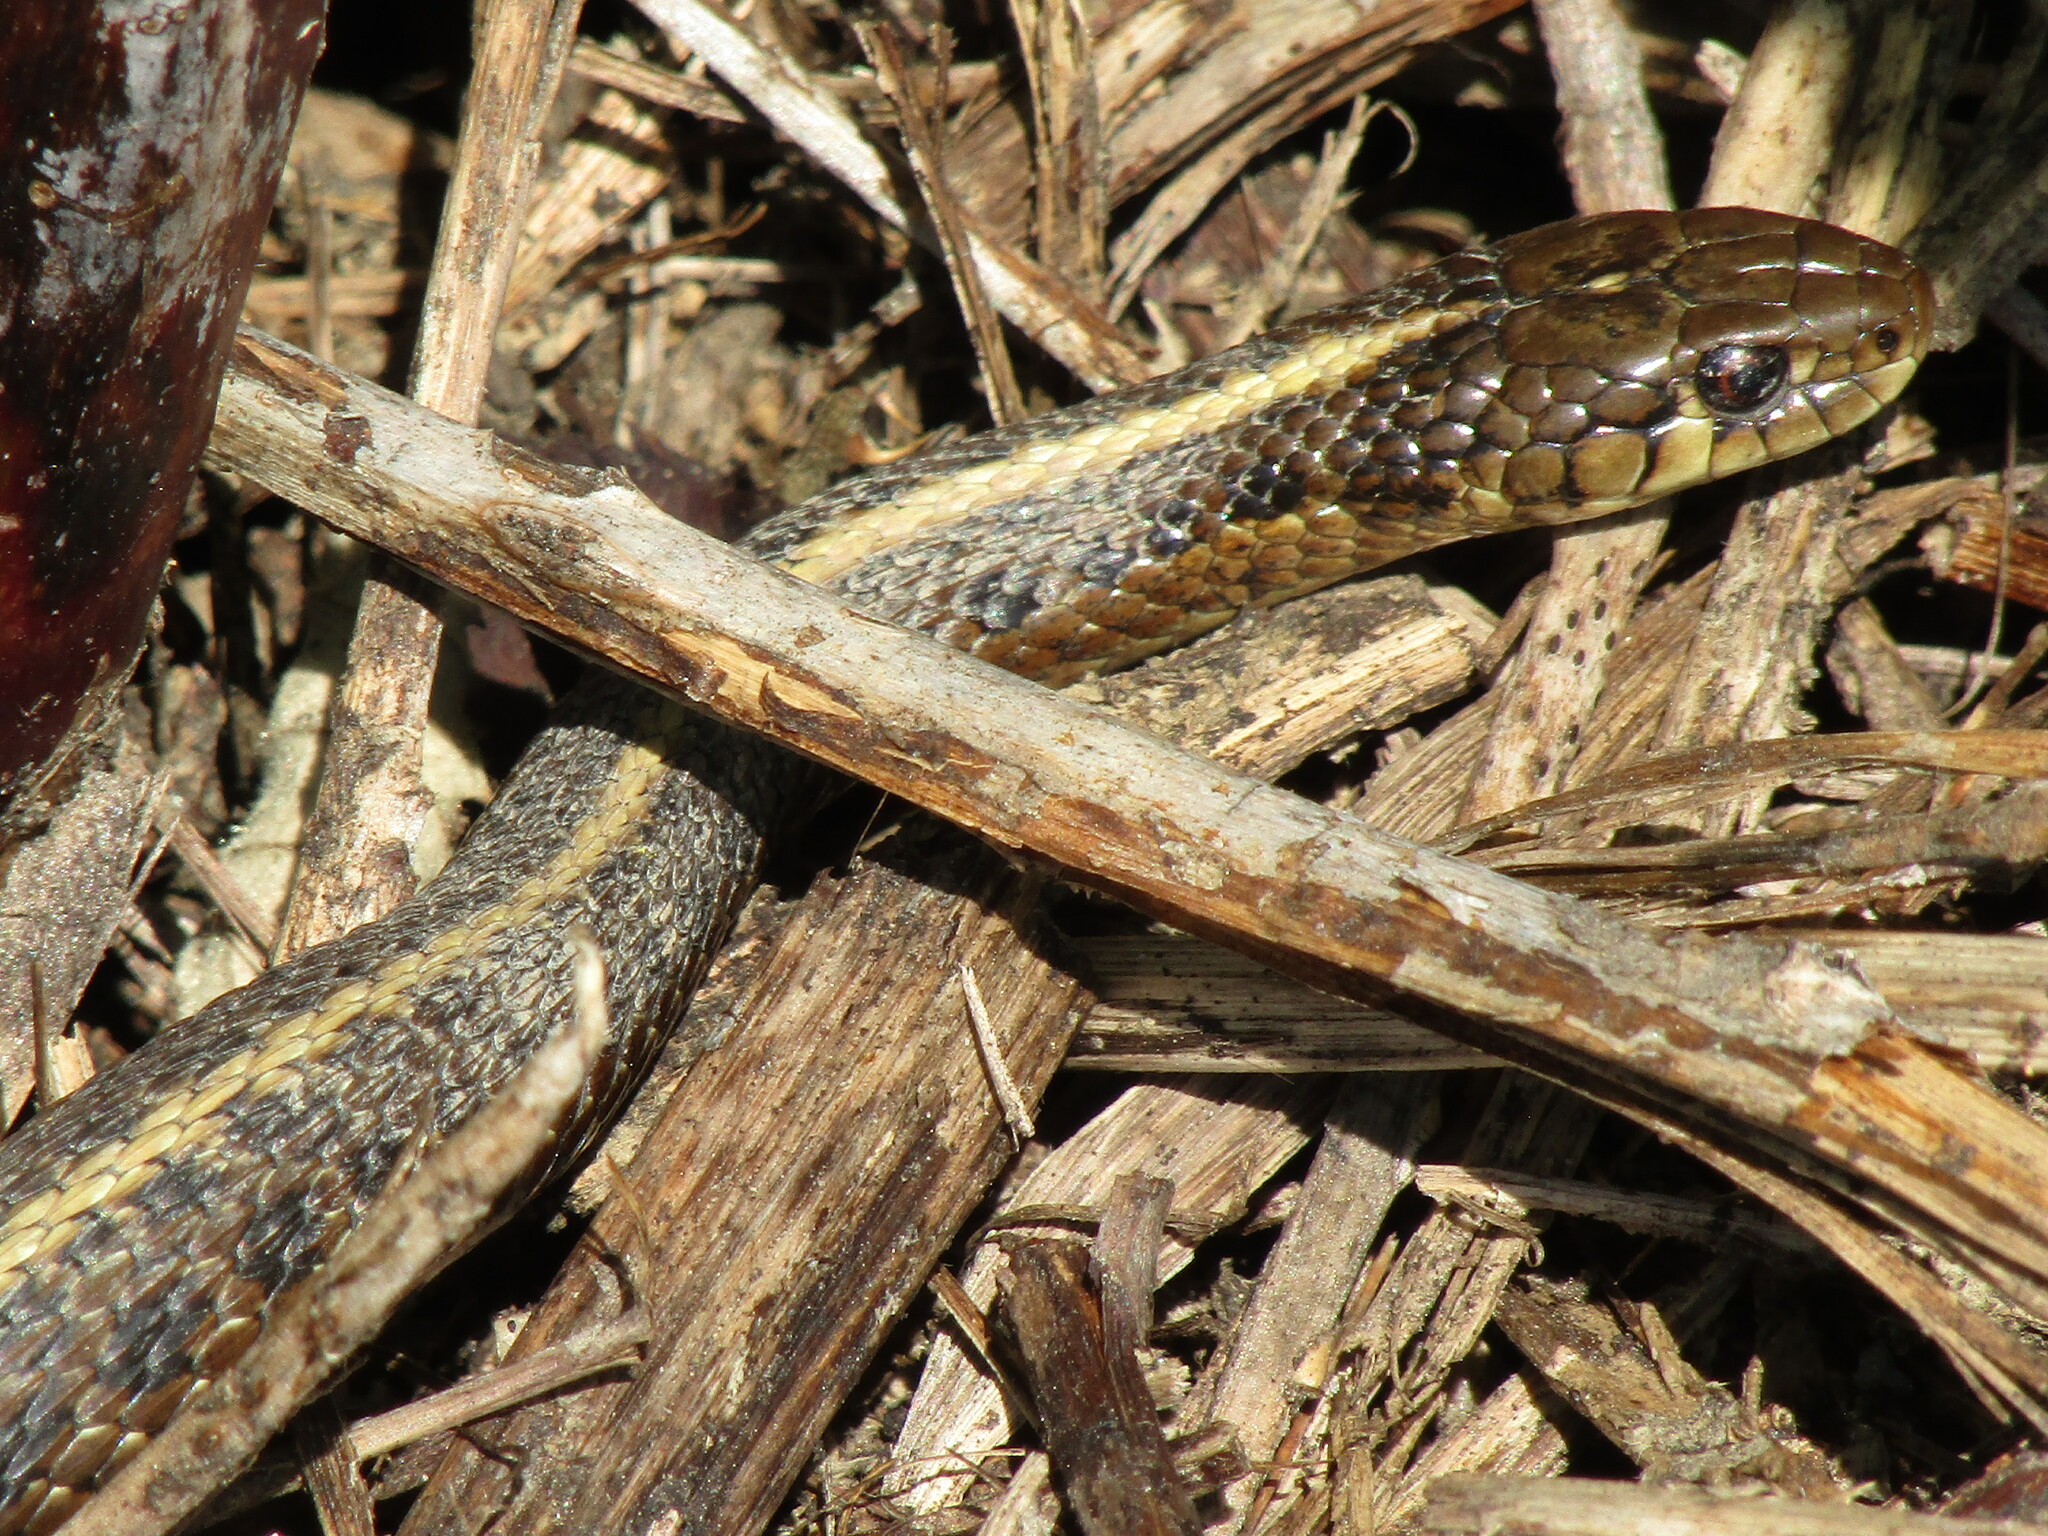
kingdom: Animalia
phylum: Chordata
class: Squamata
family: Colubridae
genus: Thamnophis
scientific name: Thamnophis ordinoides
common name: Northwestern garter snake
